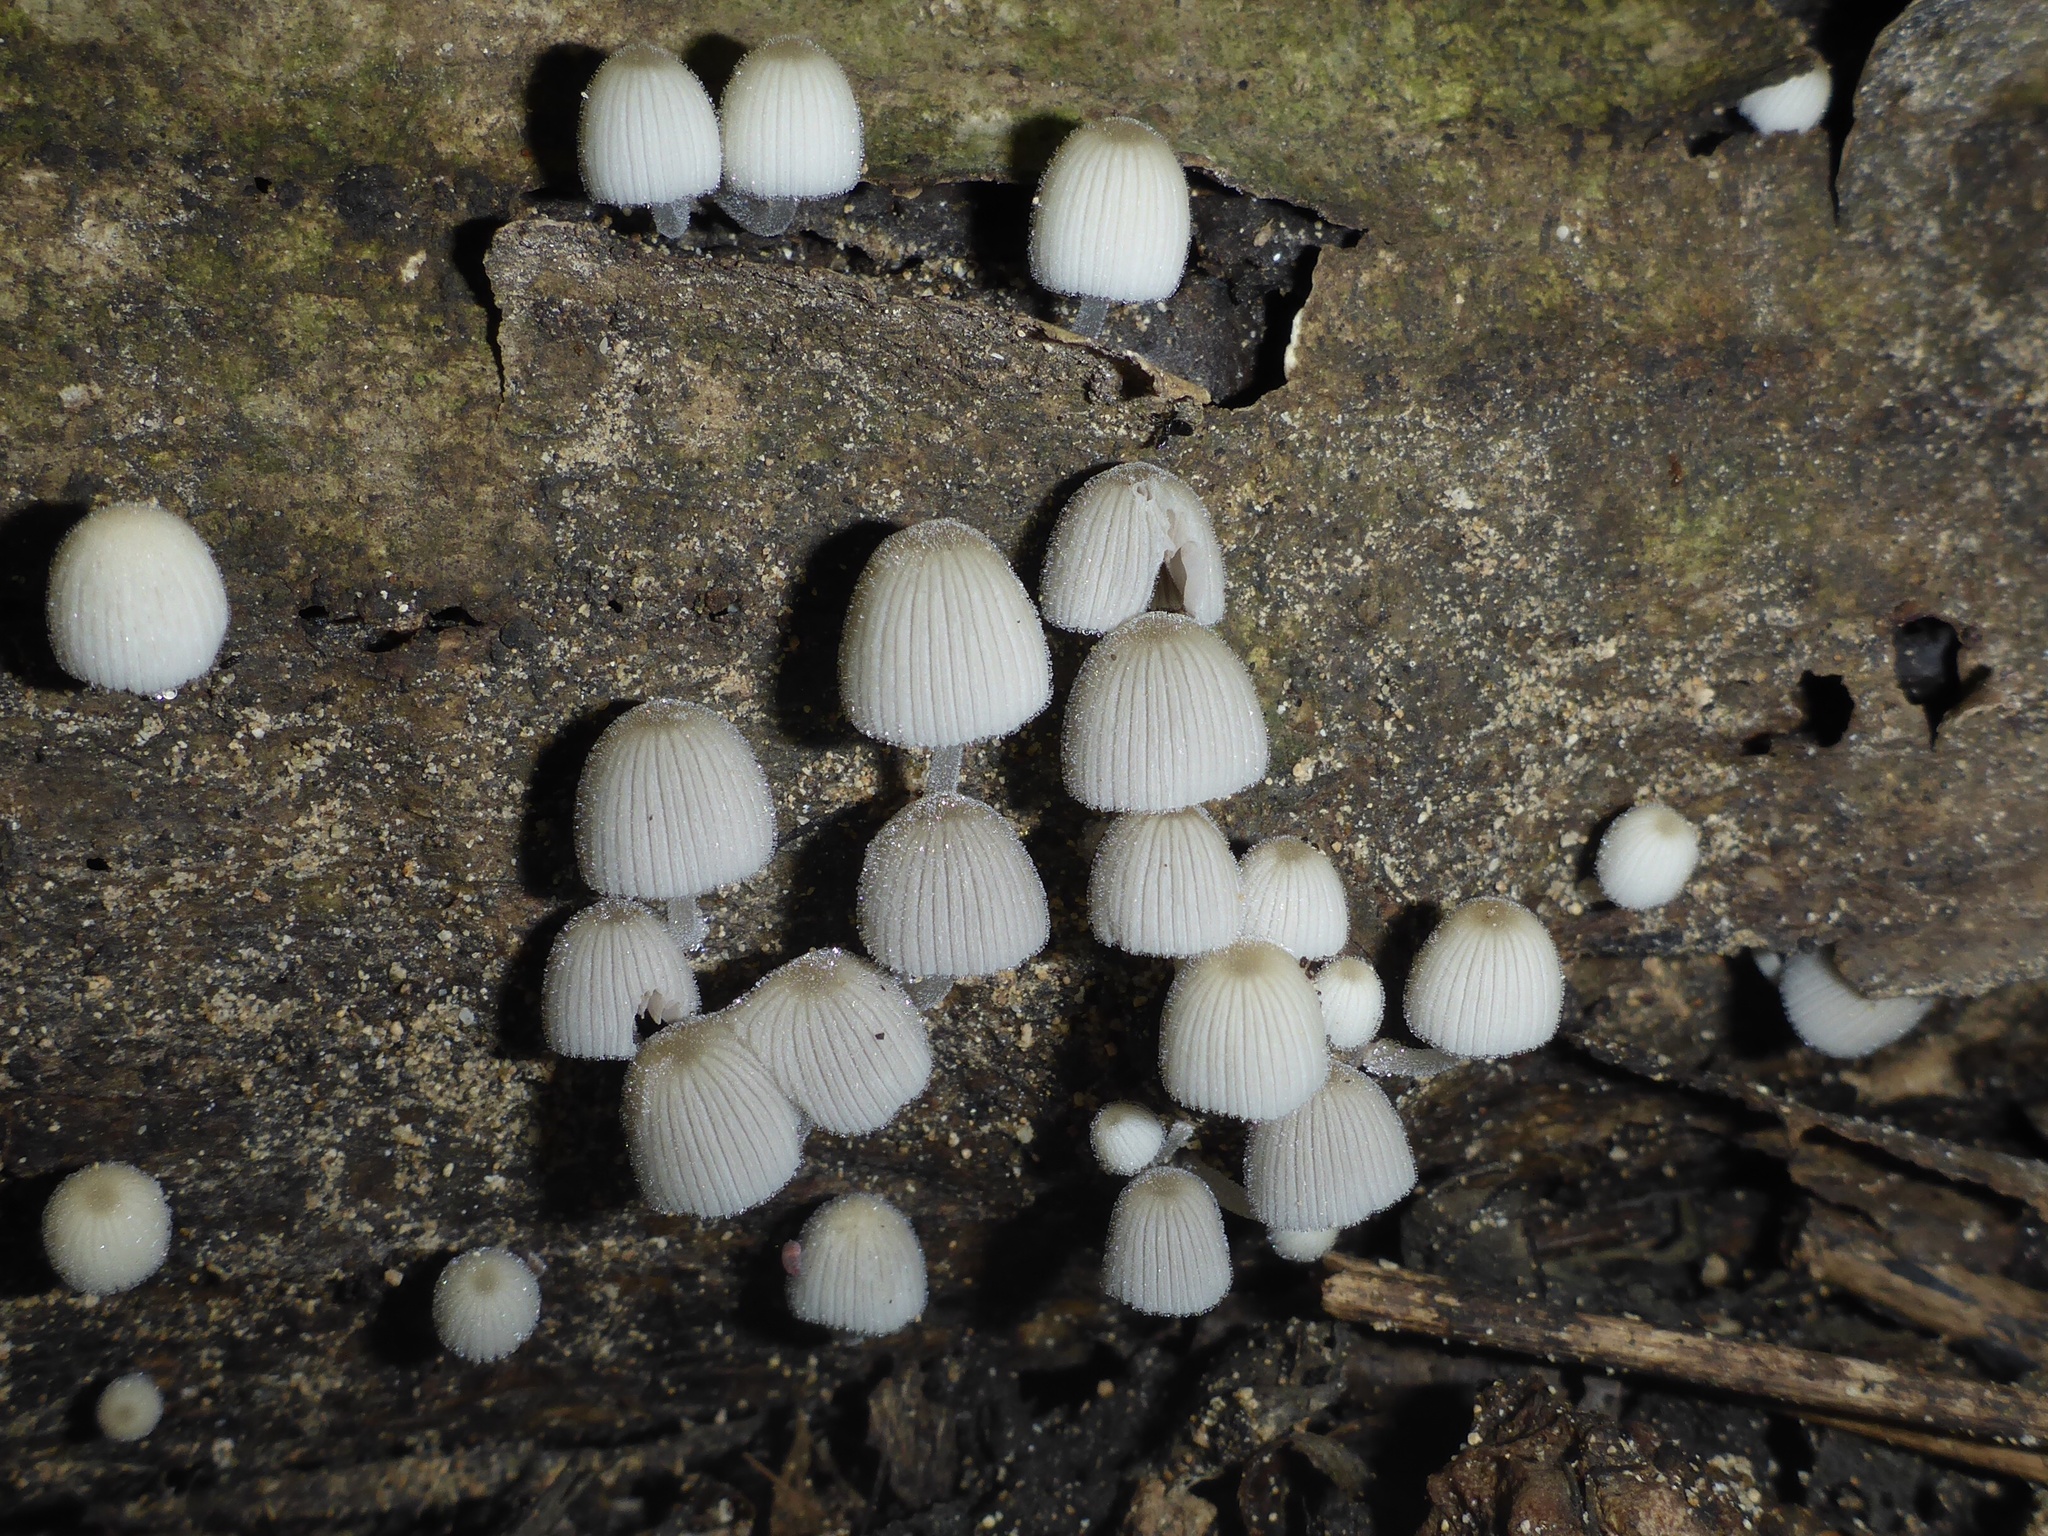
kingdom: Fungi
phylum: Basidiomycota
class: Agaricomycetes
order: Agaricales
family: Psathyrellaceae
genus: Coprinellus
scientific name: Coprinellus disseminatus
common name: Fairies' bonnets
